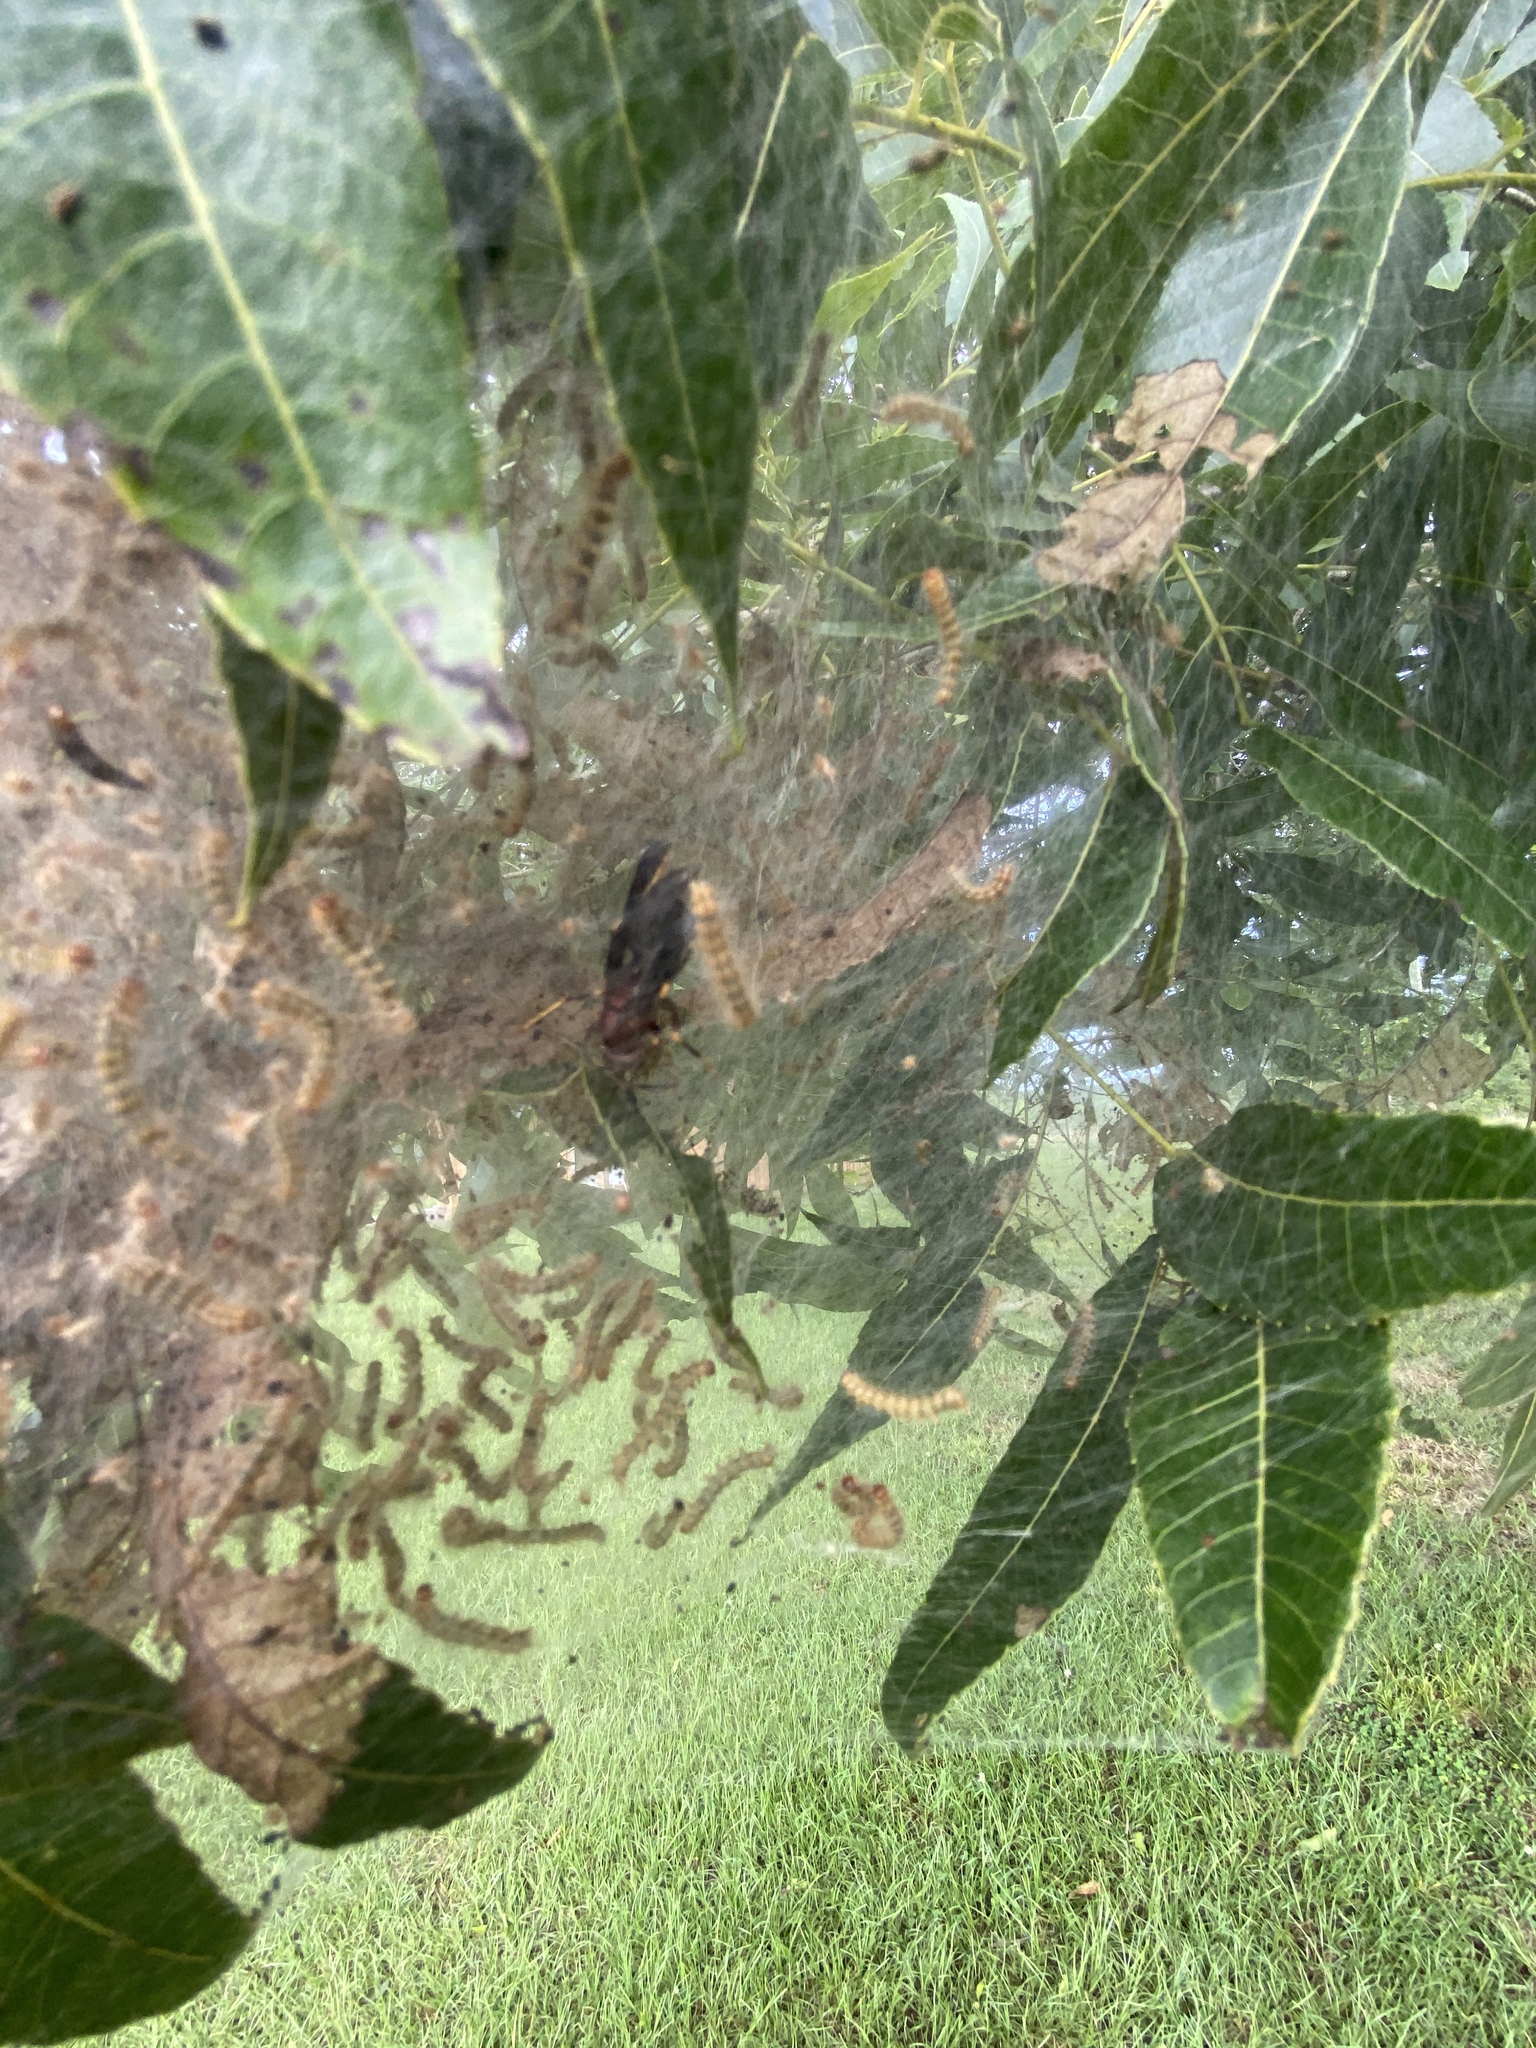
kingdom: Animalia
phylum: Arthropoda
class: Insecta
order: Lepidoptera
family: Erebidae
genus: Hyphantria
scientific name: Hyphantria cunea
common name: American white moth
